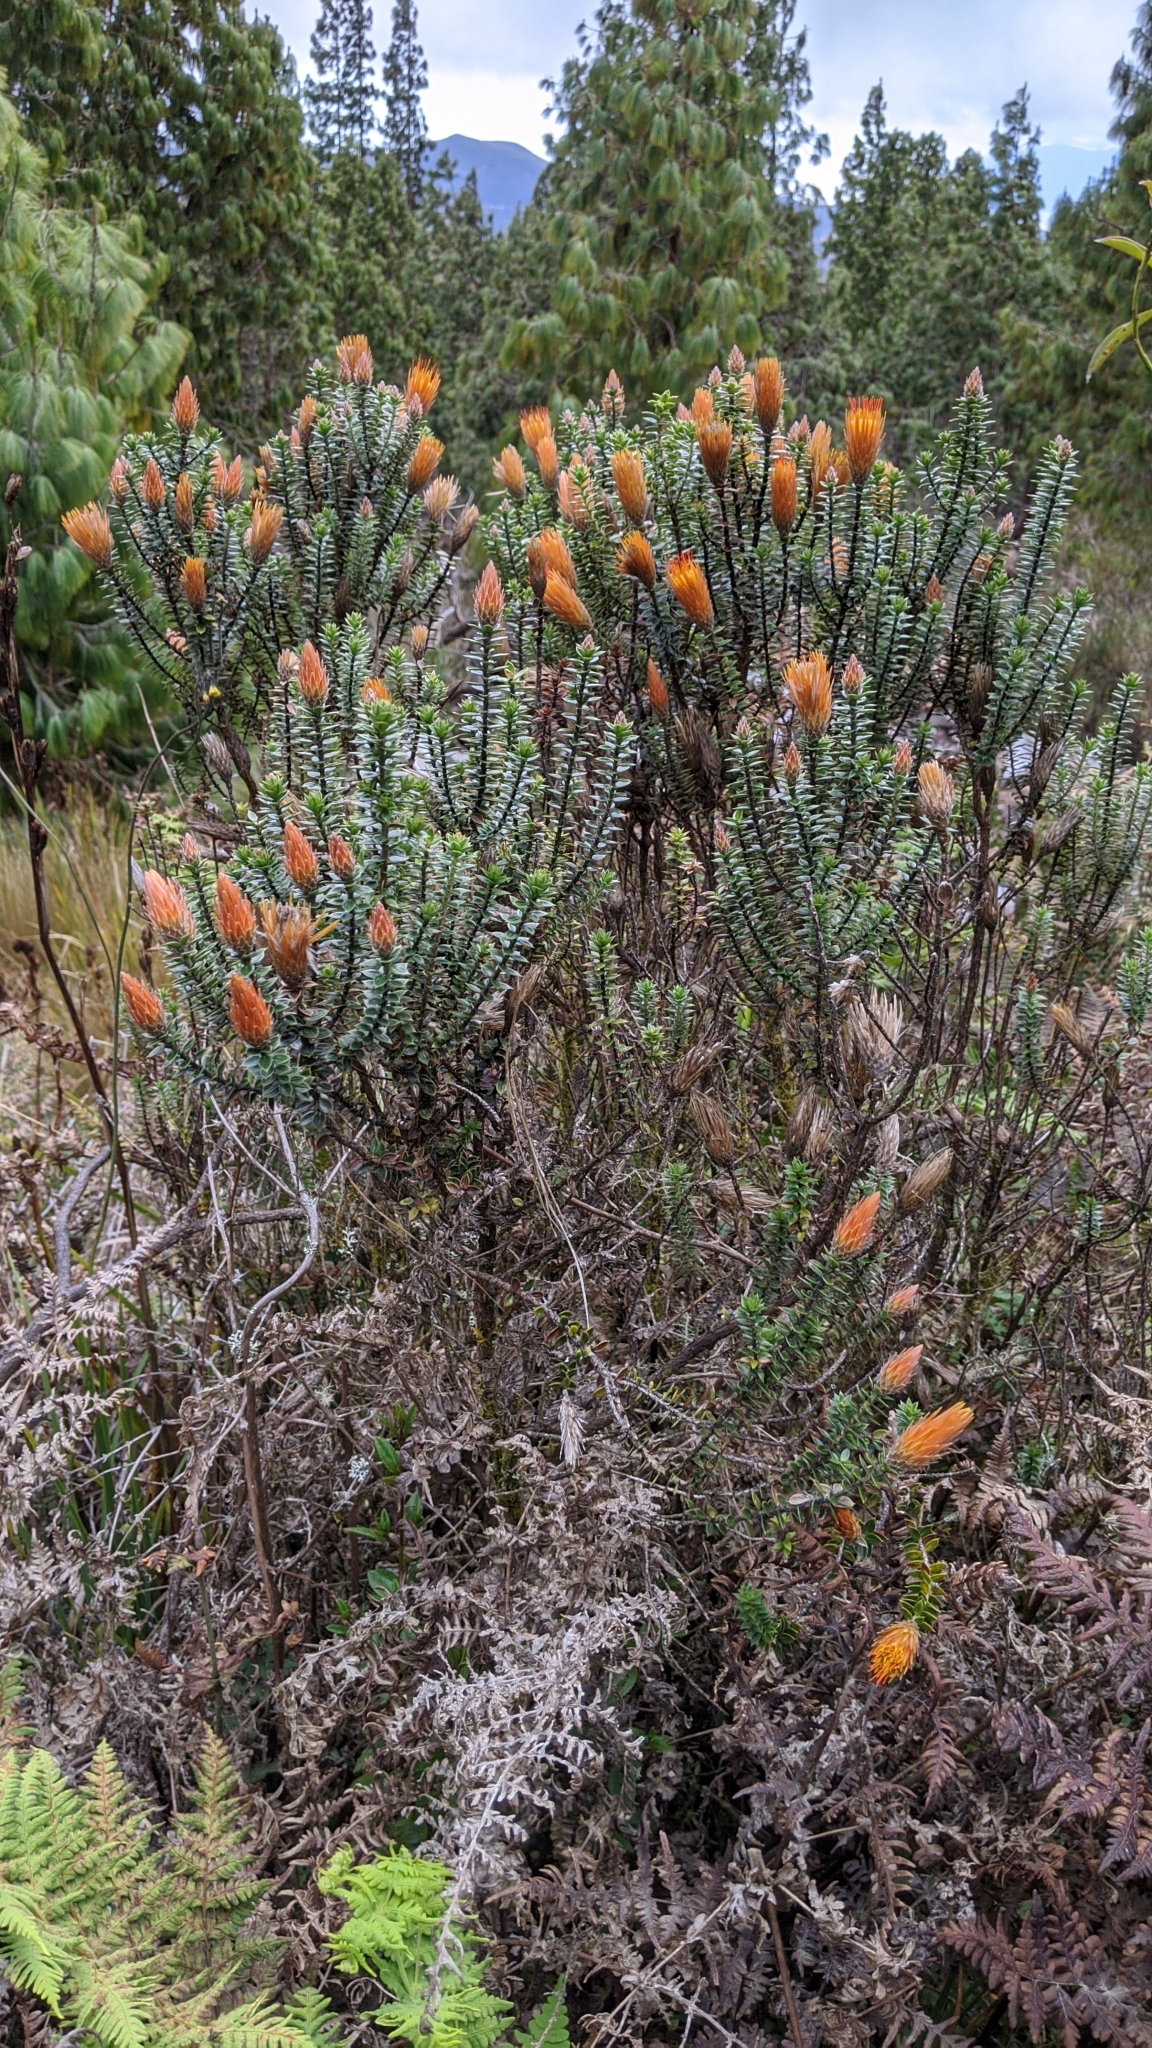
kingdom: Plantae
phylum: Tracheophyta
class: Magnoliopsida
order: Asterales
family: Asteraceae
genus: Chuquiraga
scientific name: Chuquiraga jussieui
